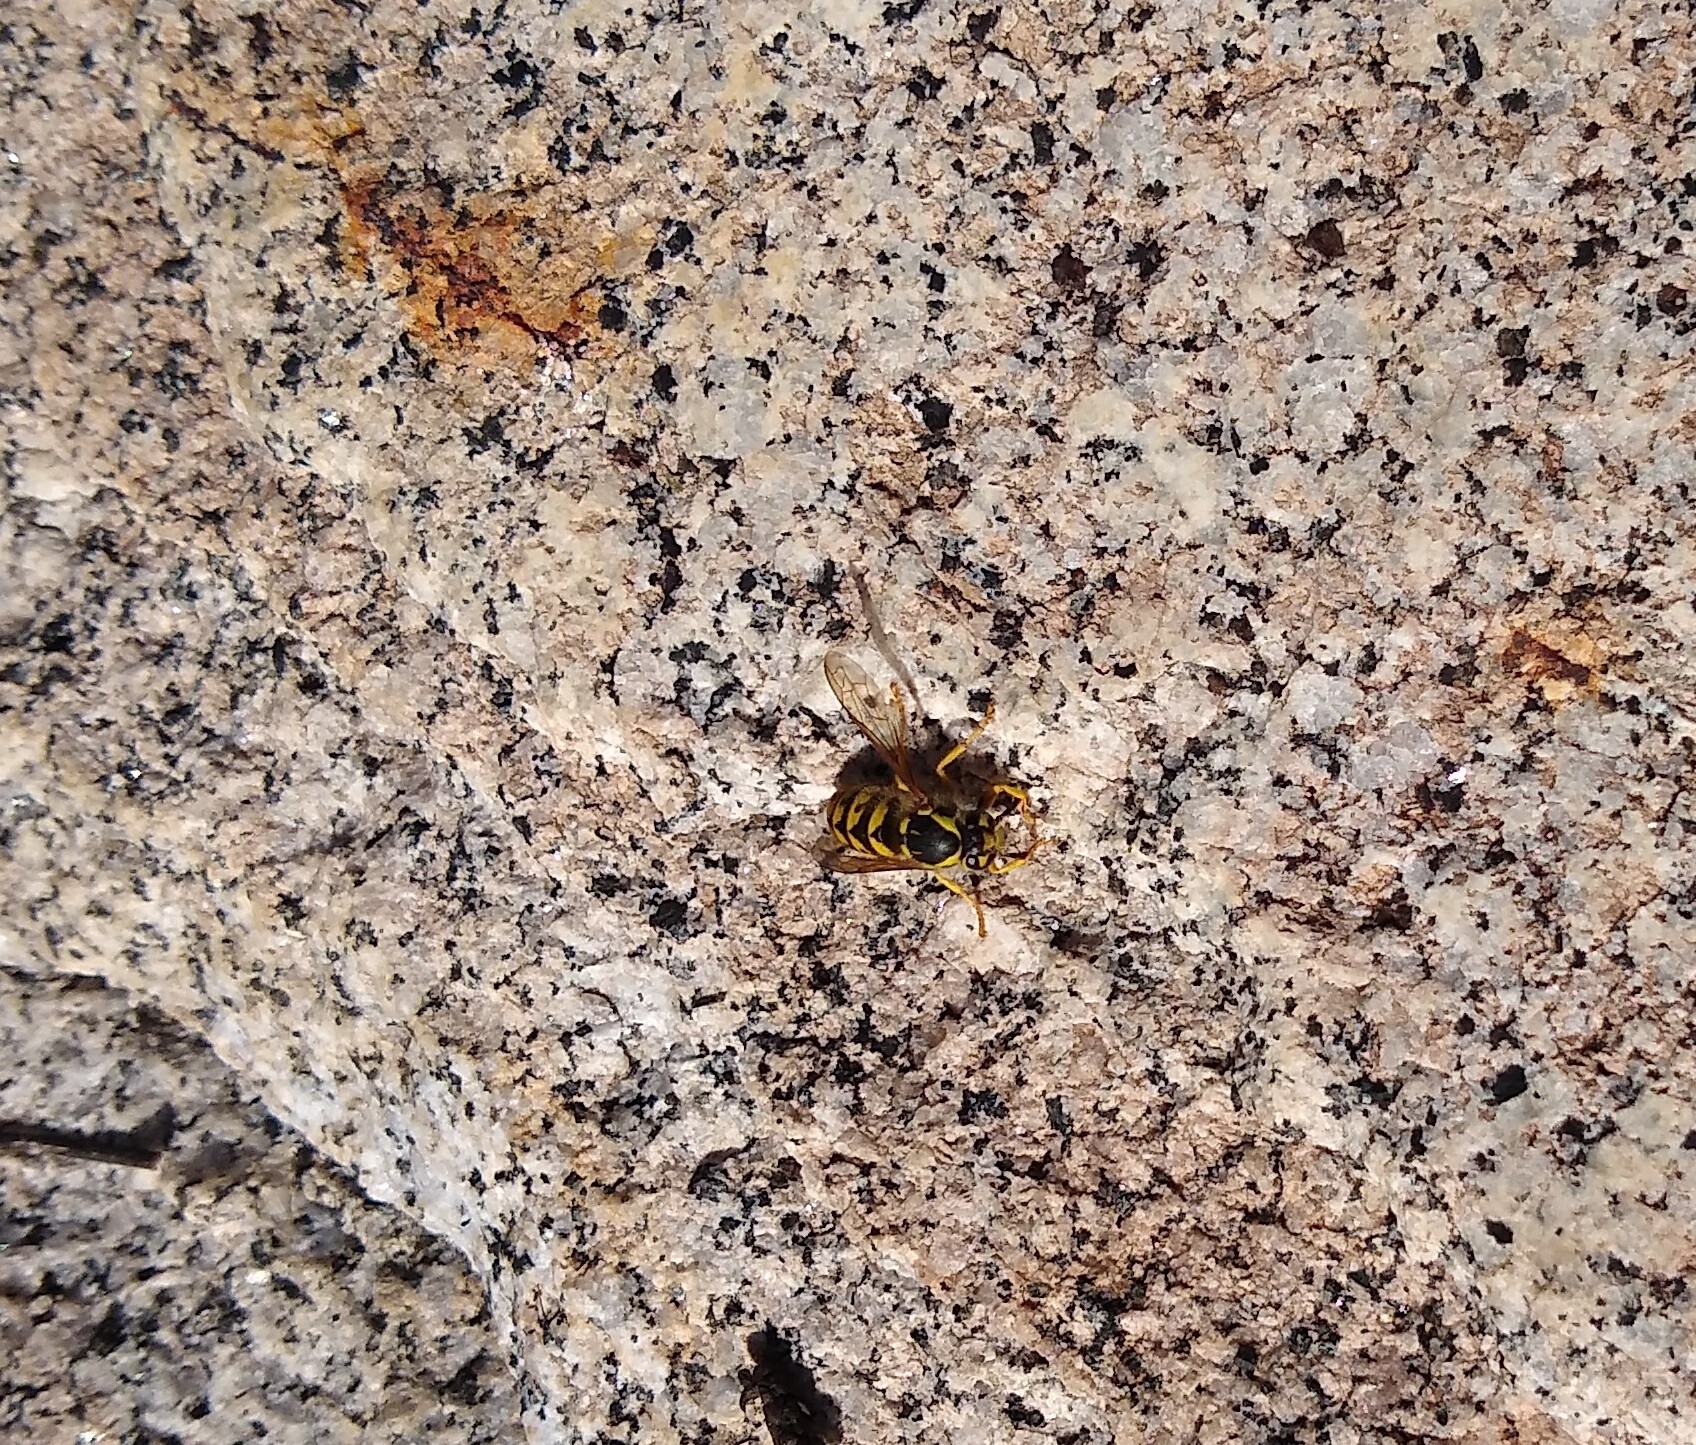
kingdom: Animalia
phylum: Arthropoda
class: Insecta
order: Hymenoptera
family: Vespidae
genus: Vespula
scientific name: Vespula pensylvanica
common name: Western yellowjacket
